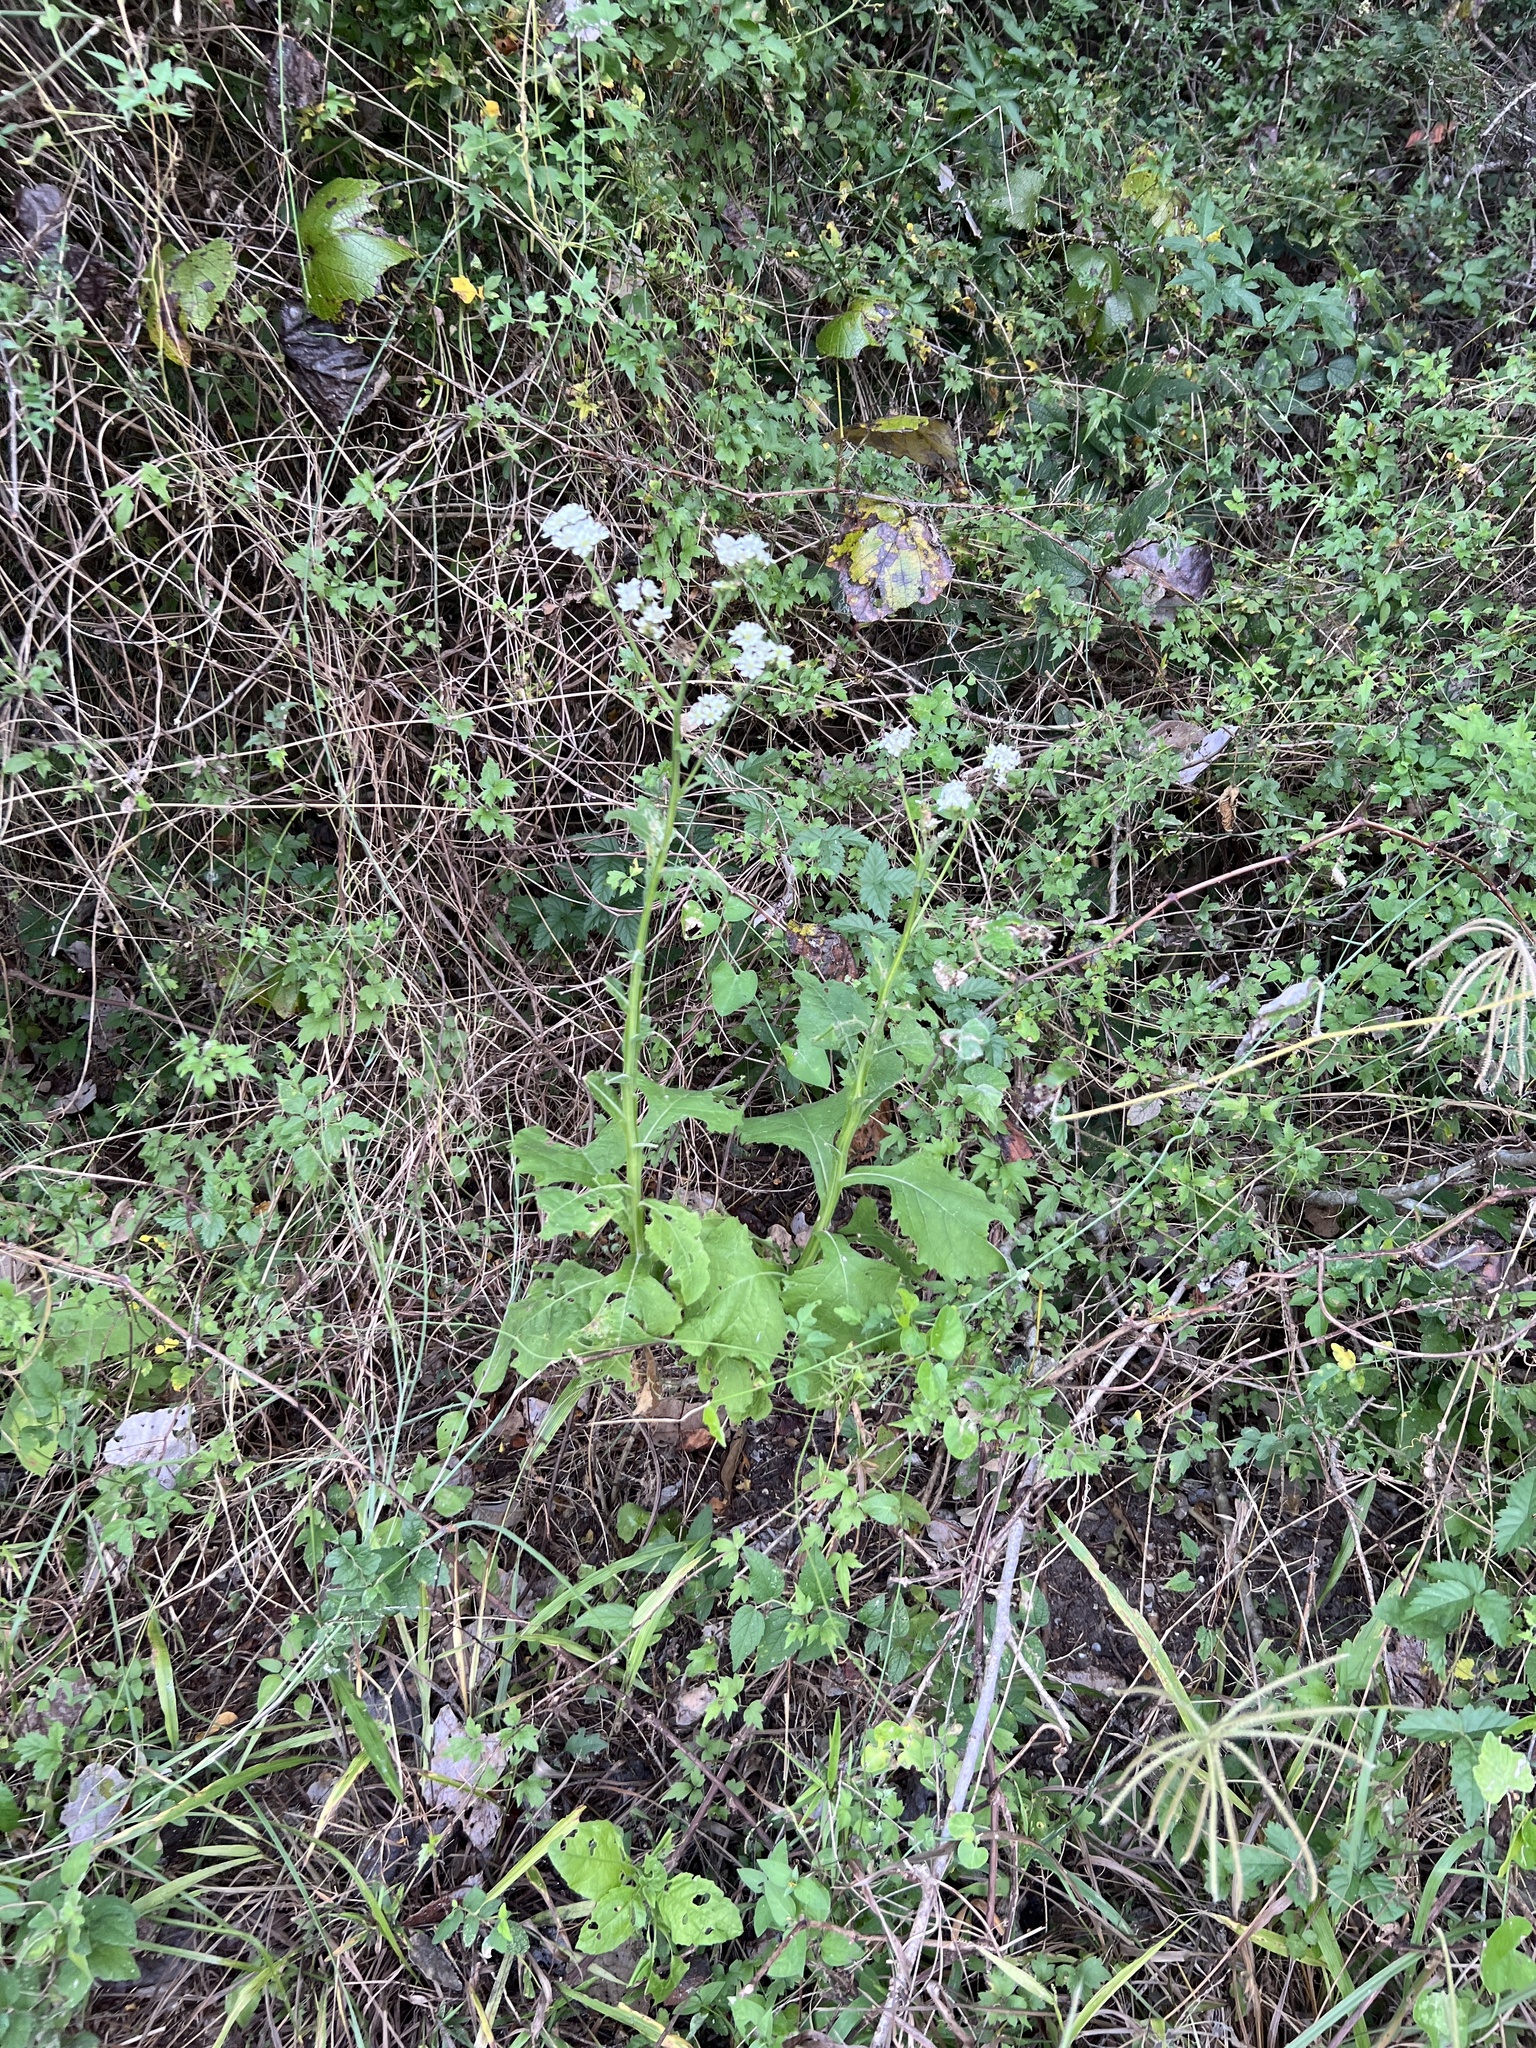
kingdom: Plantae
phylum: Tracheophyta
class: Magnoliopsida
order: Asterales
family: Asteraceae
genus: Verbesina
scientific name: Verbesina microptera
